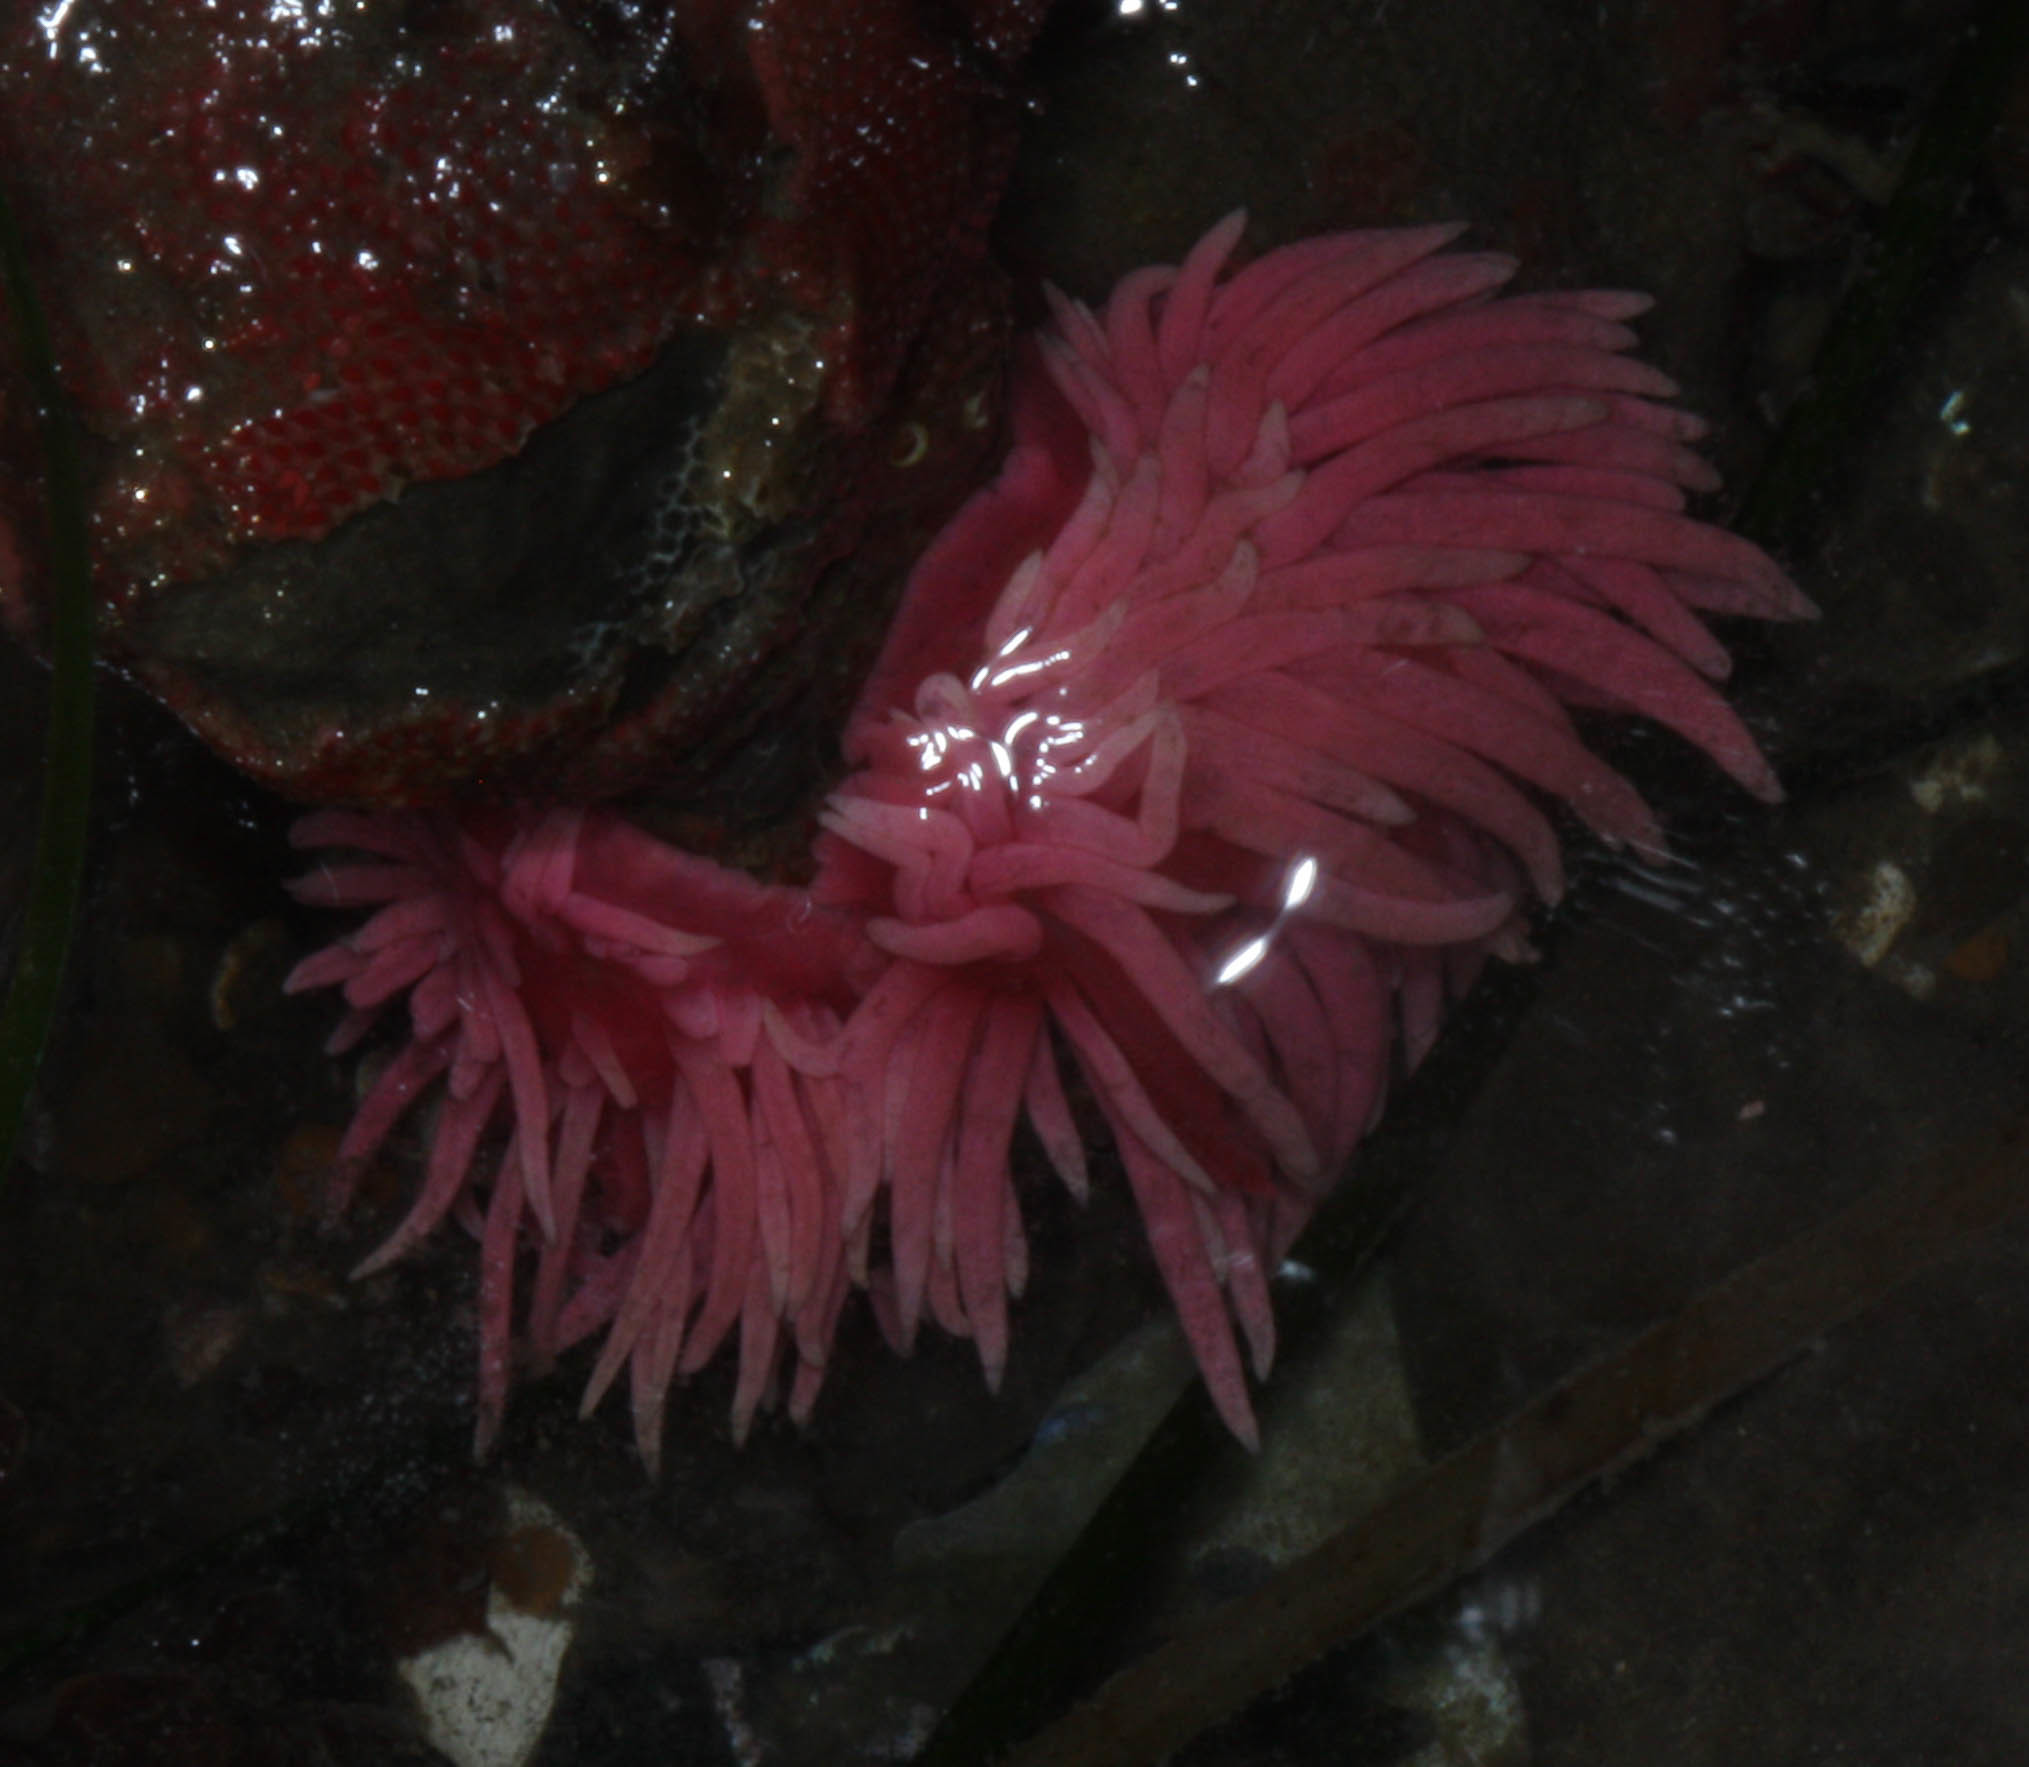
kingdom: Animalia
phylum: Mollusca
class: Gastropoda
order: Nudibranchia
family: Goniodorididae
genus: Okenia
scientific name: Okenia
